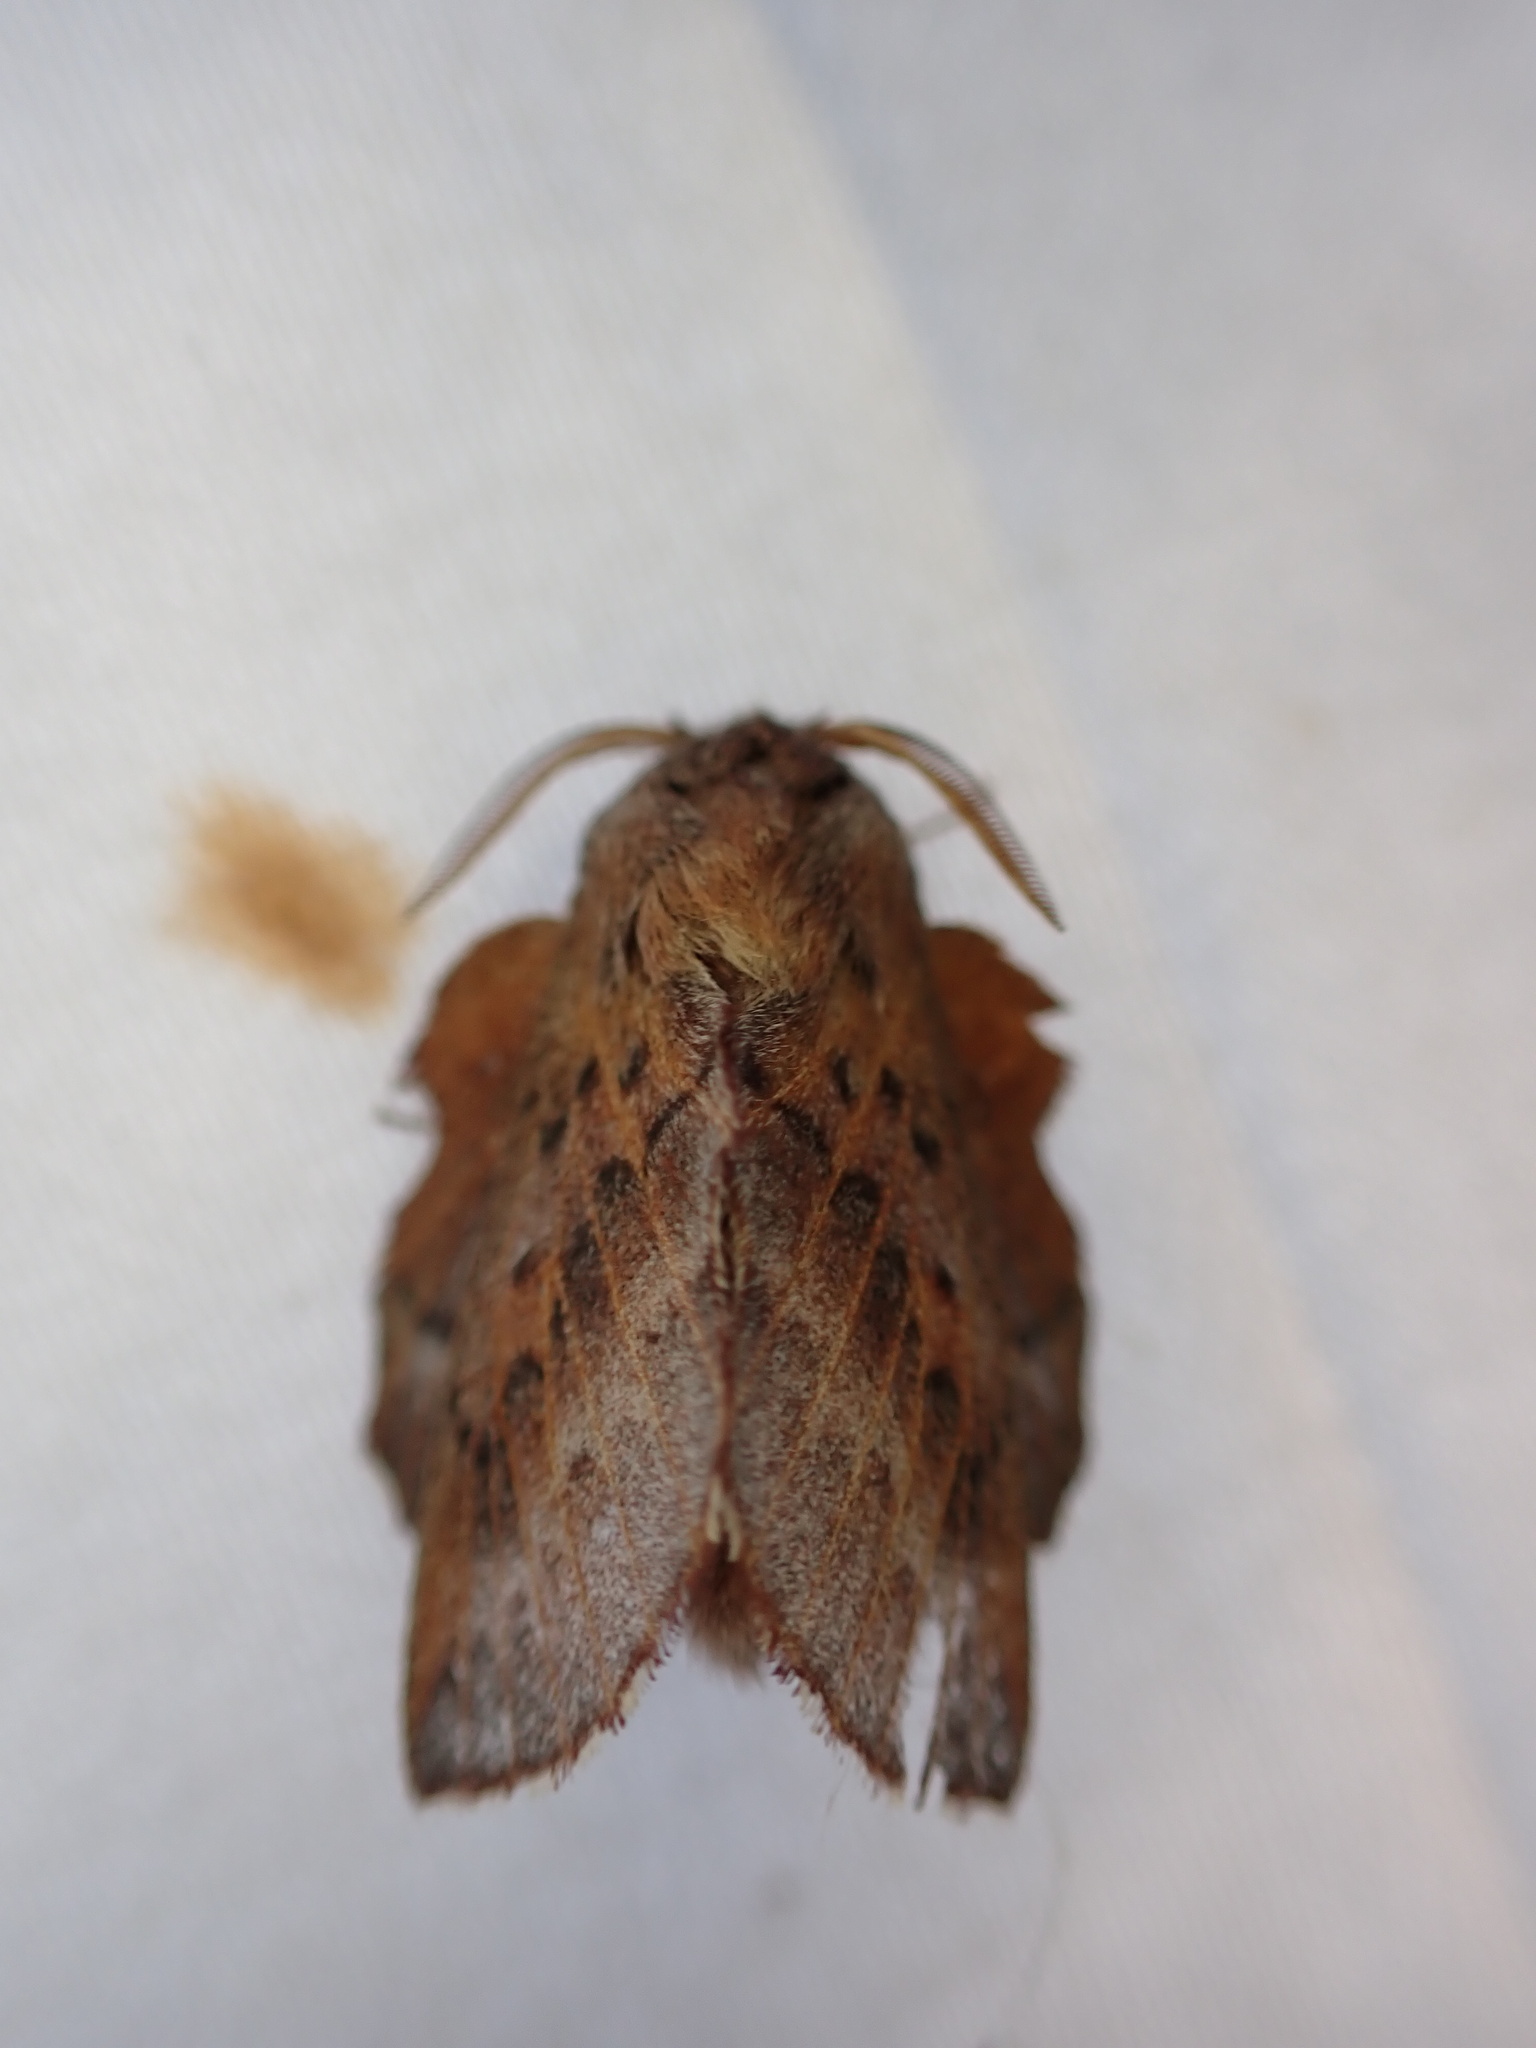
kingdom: Animalia
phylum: Arthropoda
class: Insecta
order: Lepidoptera
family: Lasiocampidae
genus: Phyllodesma
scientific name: Phyllodesma americana
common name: American lappet moth
